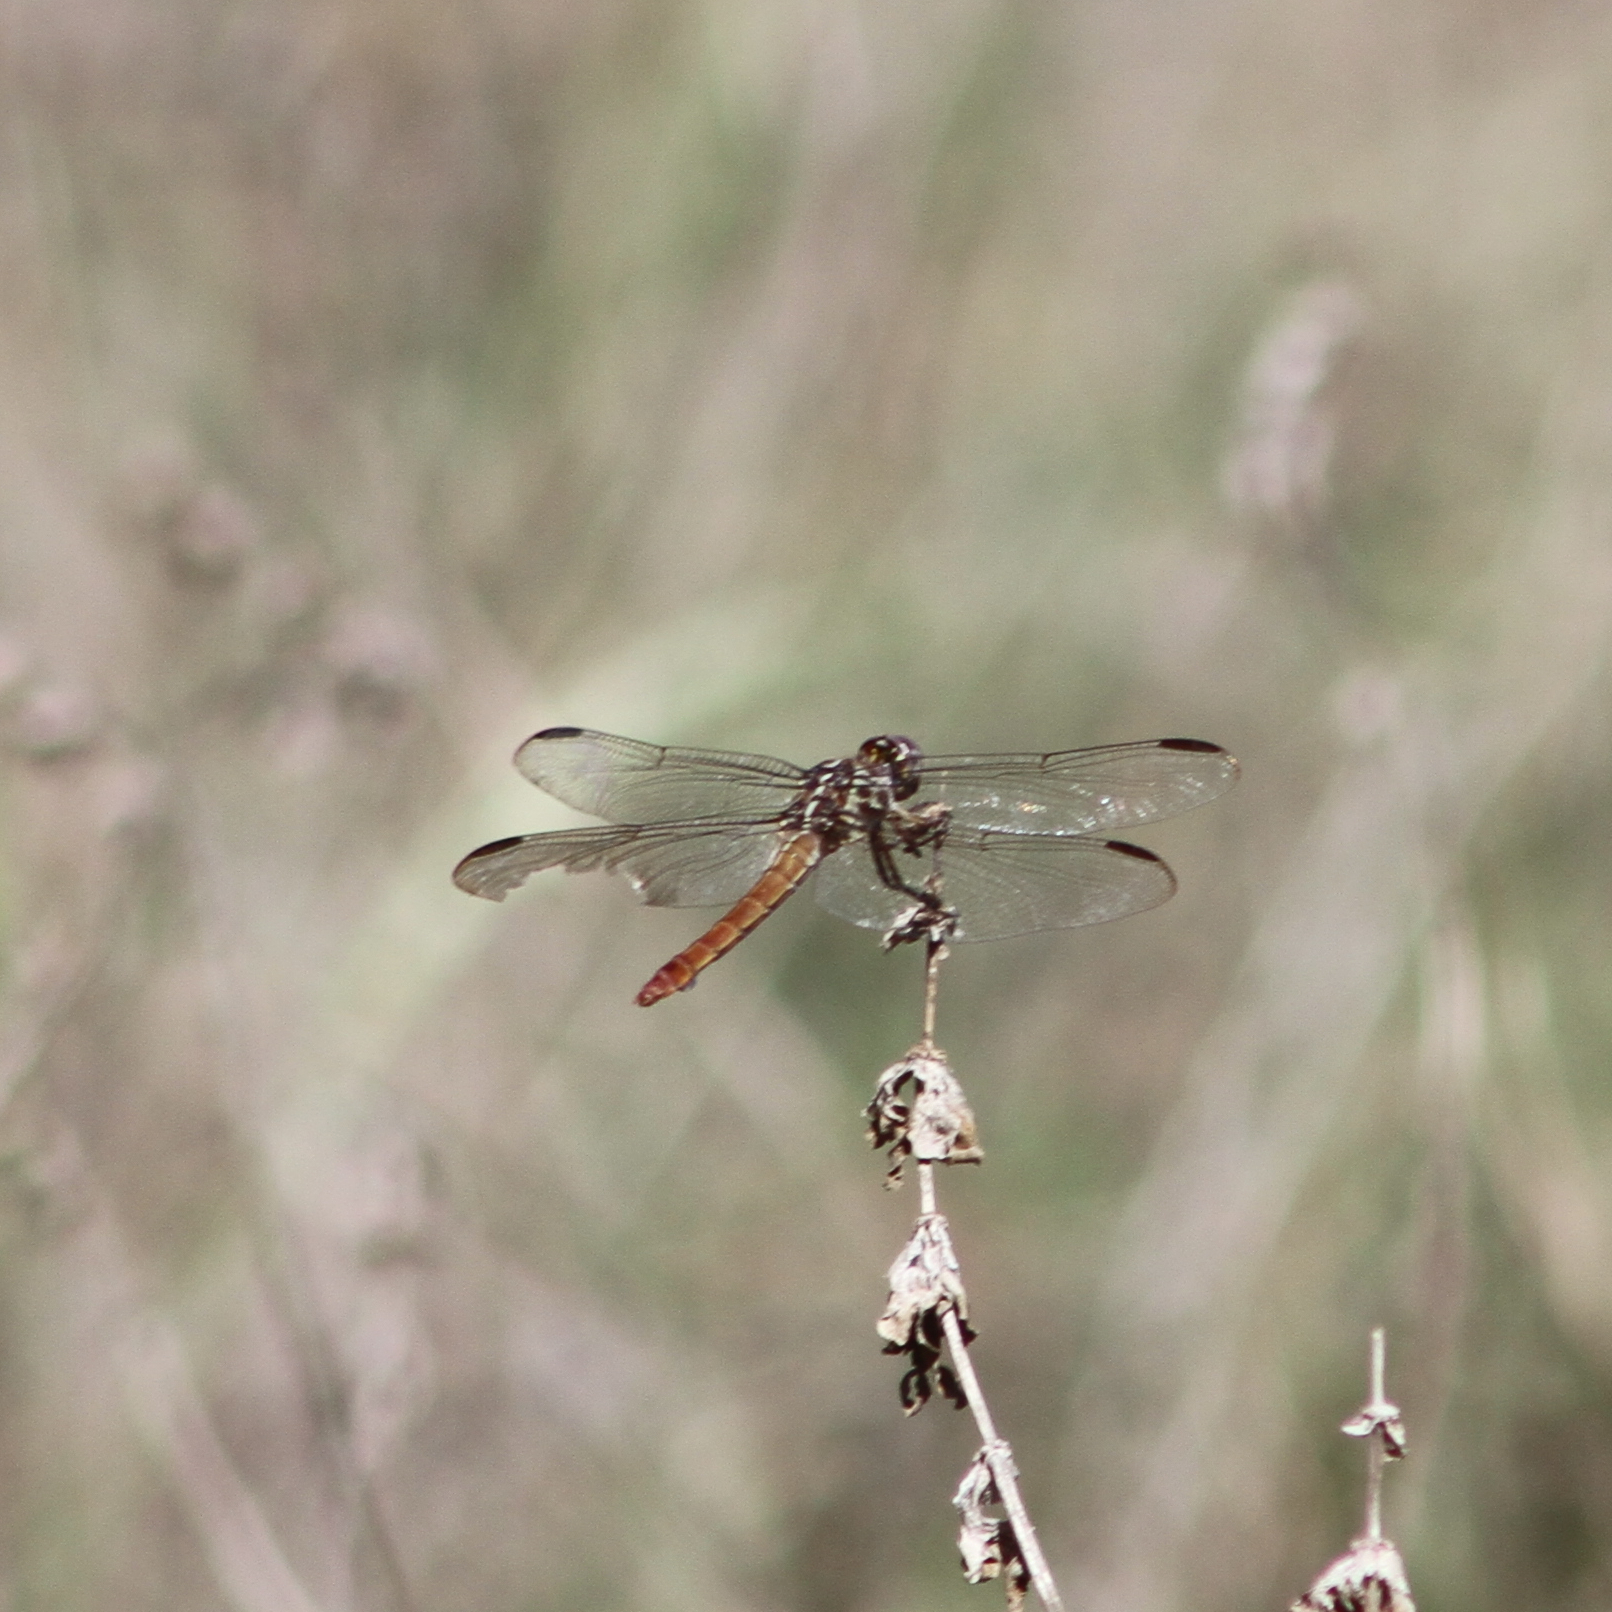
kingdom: Animalia
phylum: Arthropoda
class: Insecta
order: Odonata
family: Libellulidae
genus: Orthemis
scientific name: Orthemis ferruginea
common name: Roseate skimmer
